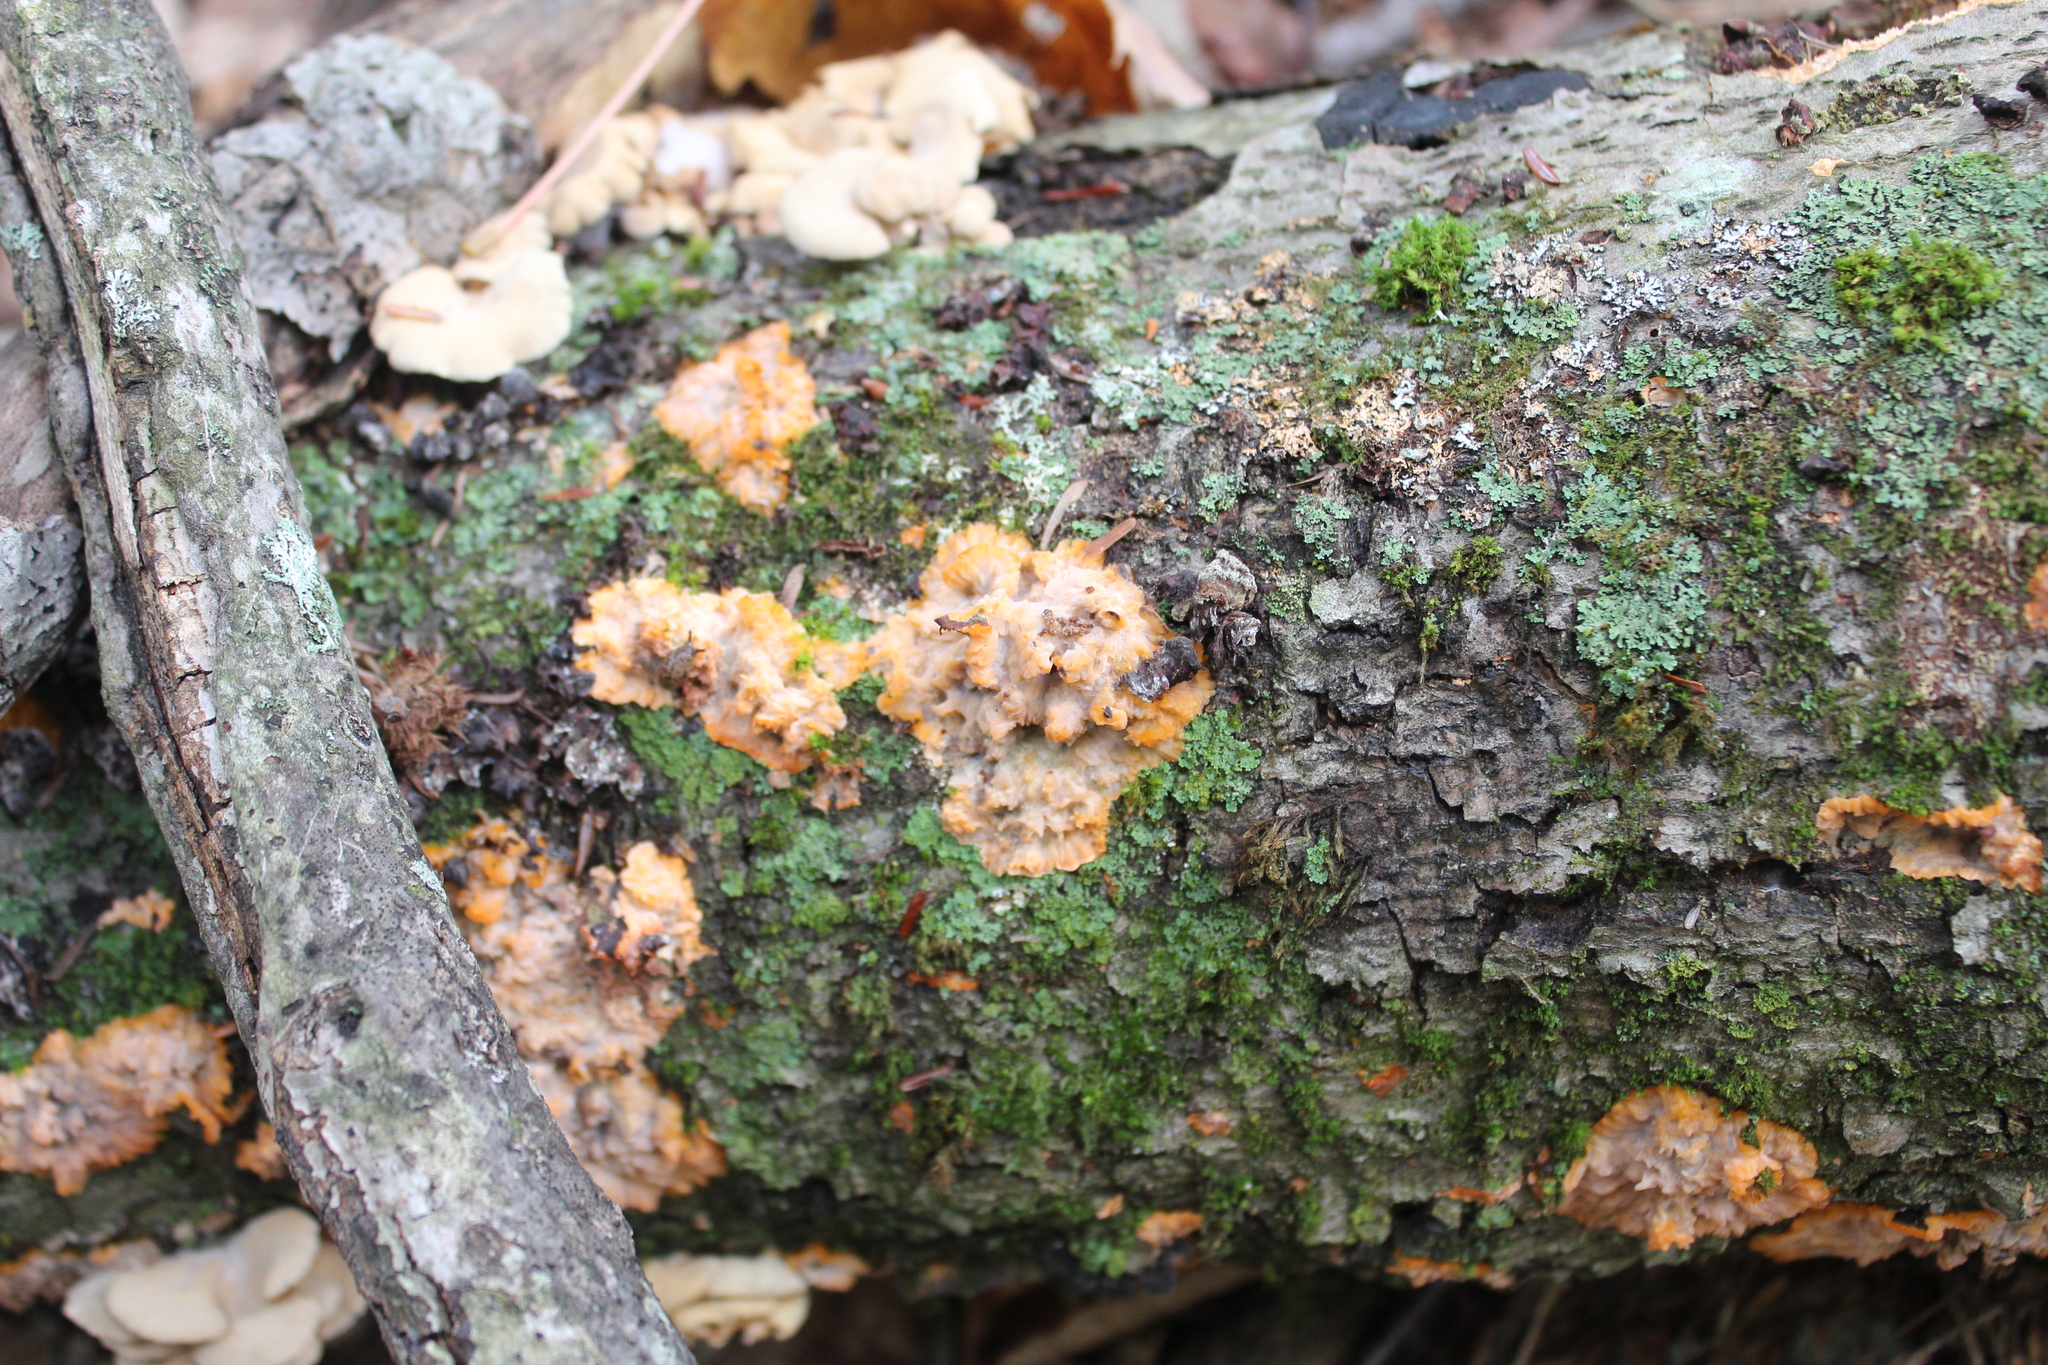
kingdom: Fungi
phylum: Basidiomycota
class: Agaricomycetes
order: Polyporales
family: Meruliaceae
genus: Phlebia
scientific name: Phlebia radiata
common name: Wrinkled crust
